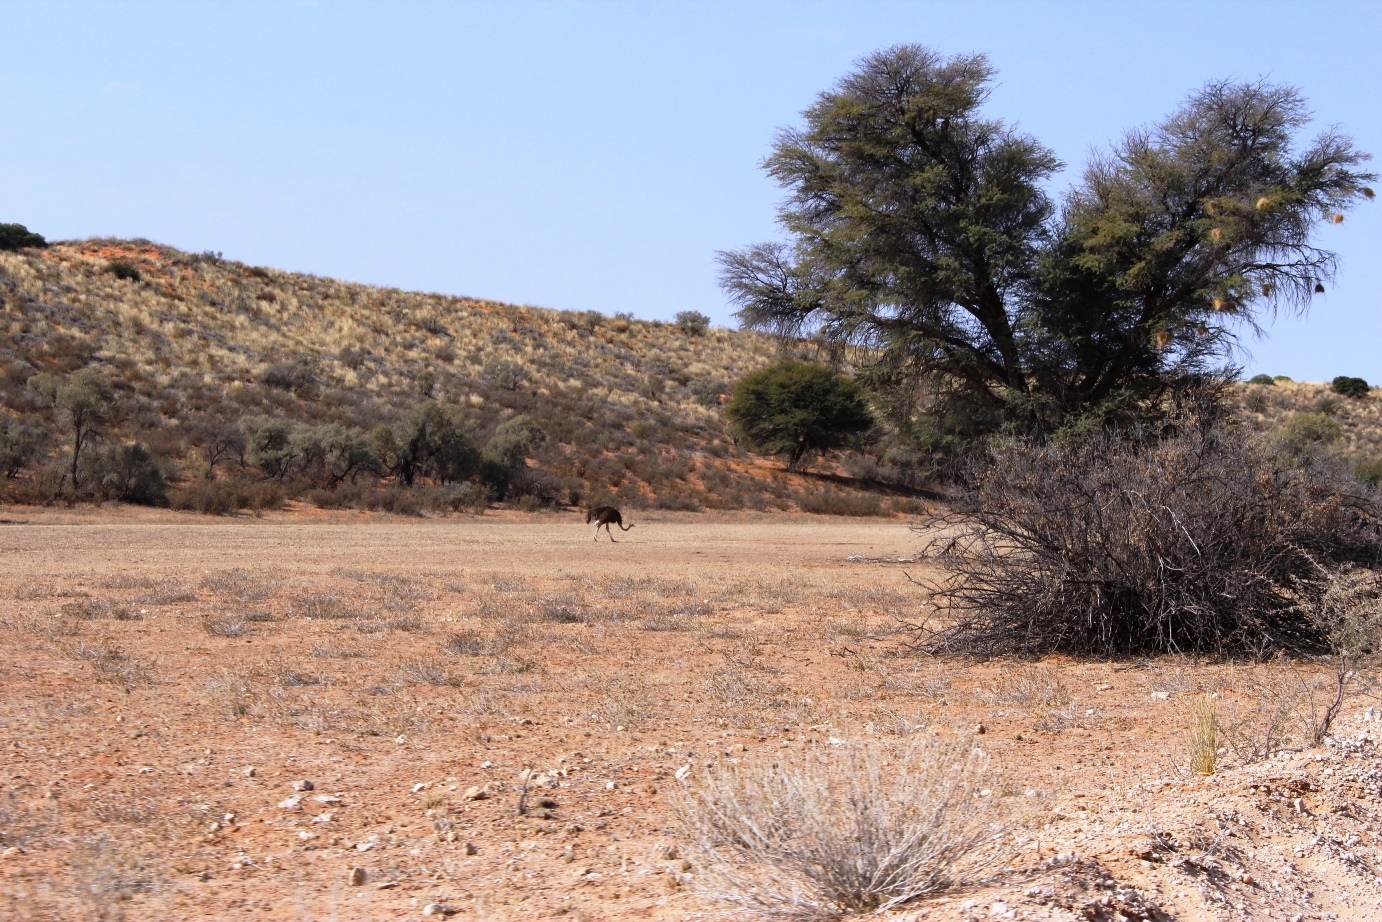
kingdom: Animalia
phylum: Chordata
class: Aves
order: Struthioniformes
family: Struthionidae
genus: Struthio
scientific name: Struthio camelus
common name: Common ostrich
